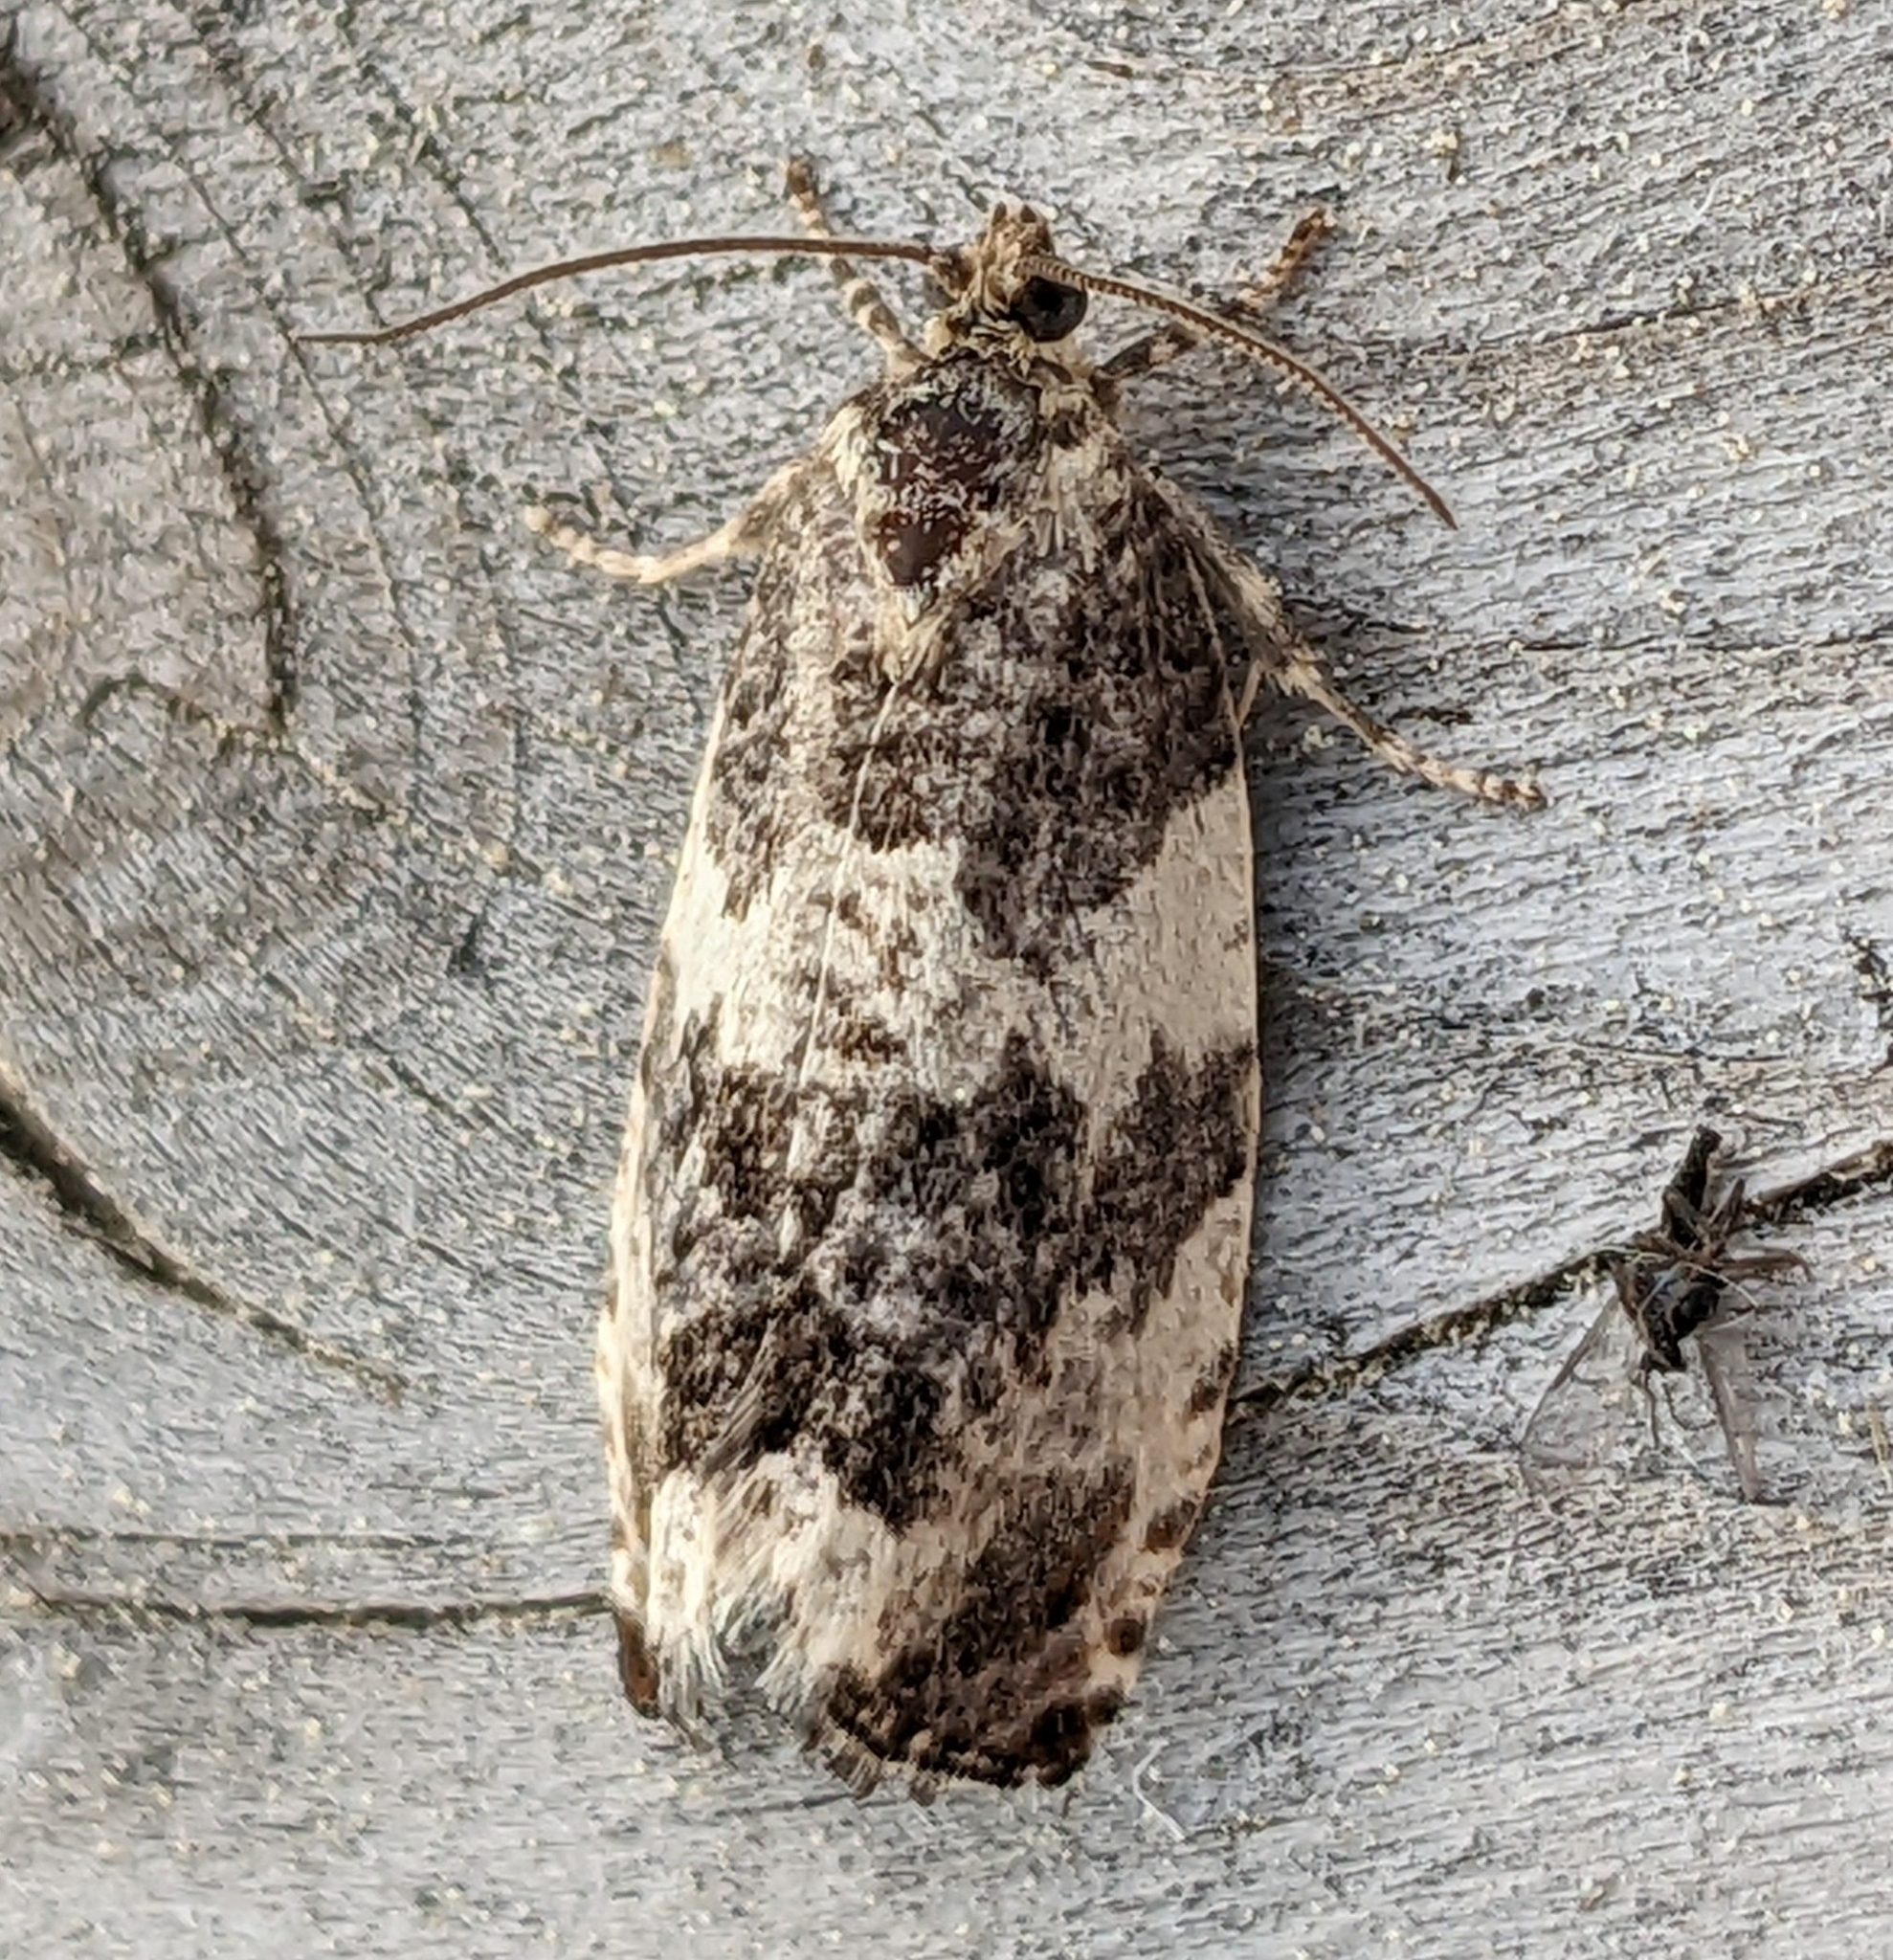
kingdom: Animalia
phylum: Arthropoda
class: Insecta
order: Lepidoptera
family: Tortricidae
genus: Pseudosciaphila
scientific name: Pseudosciaphila duplex
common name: Poplar leafroller moth
